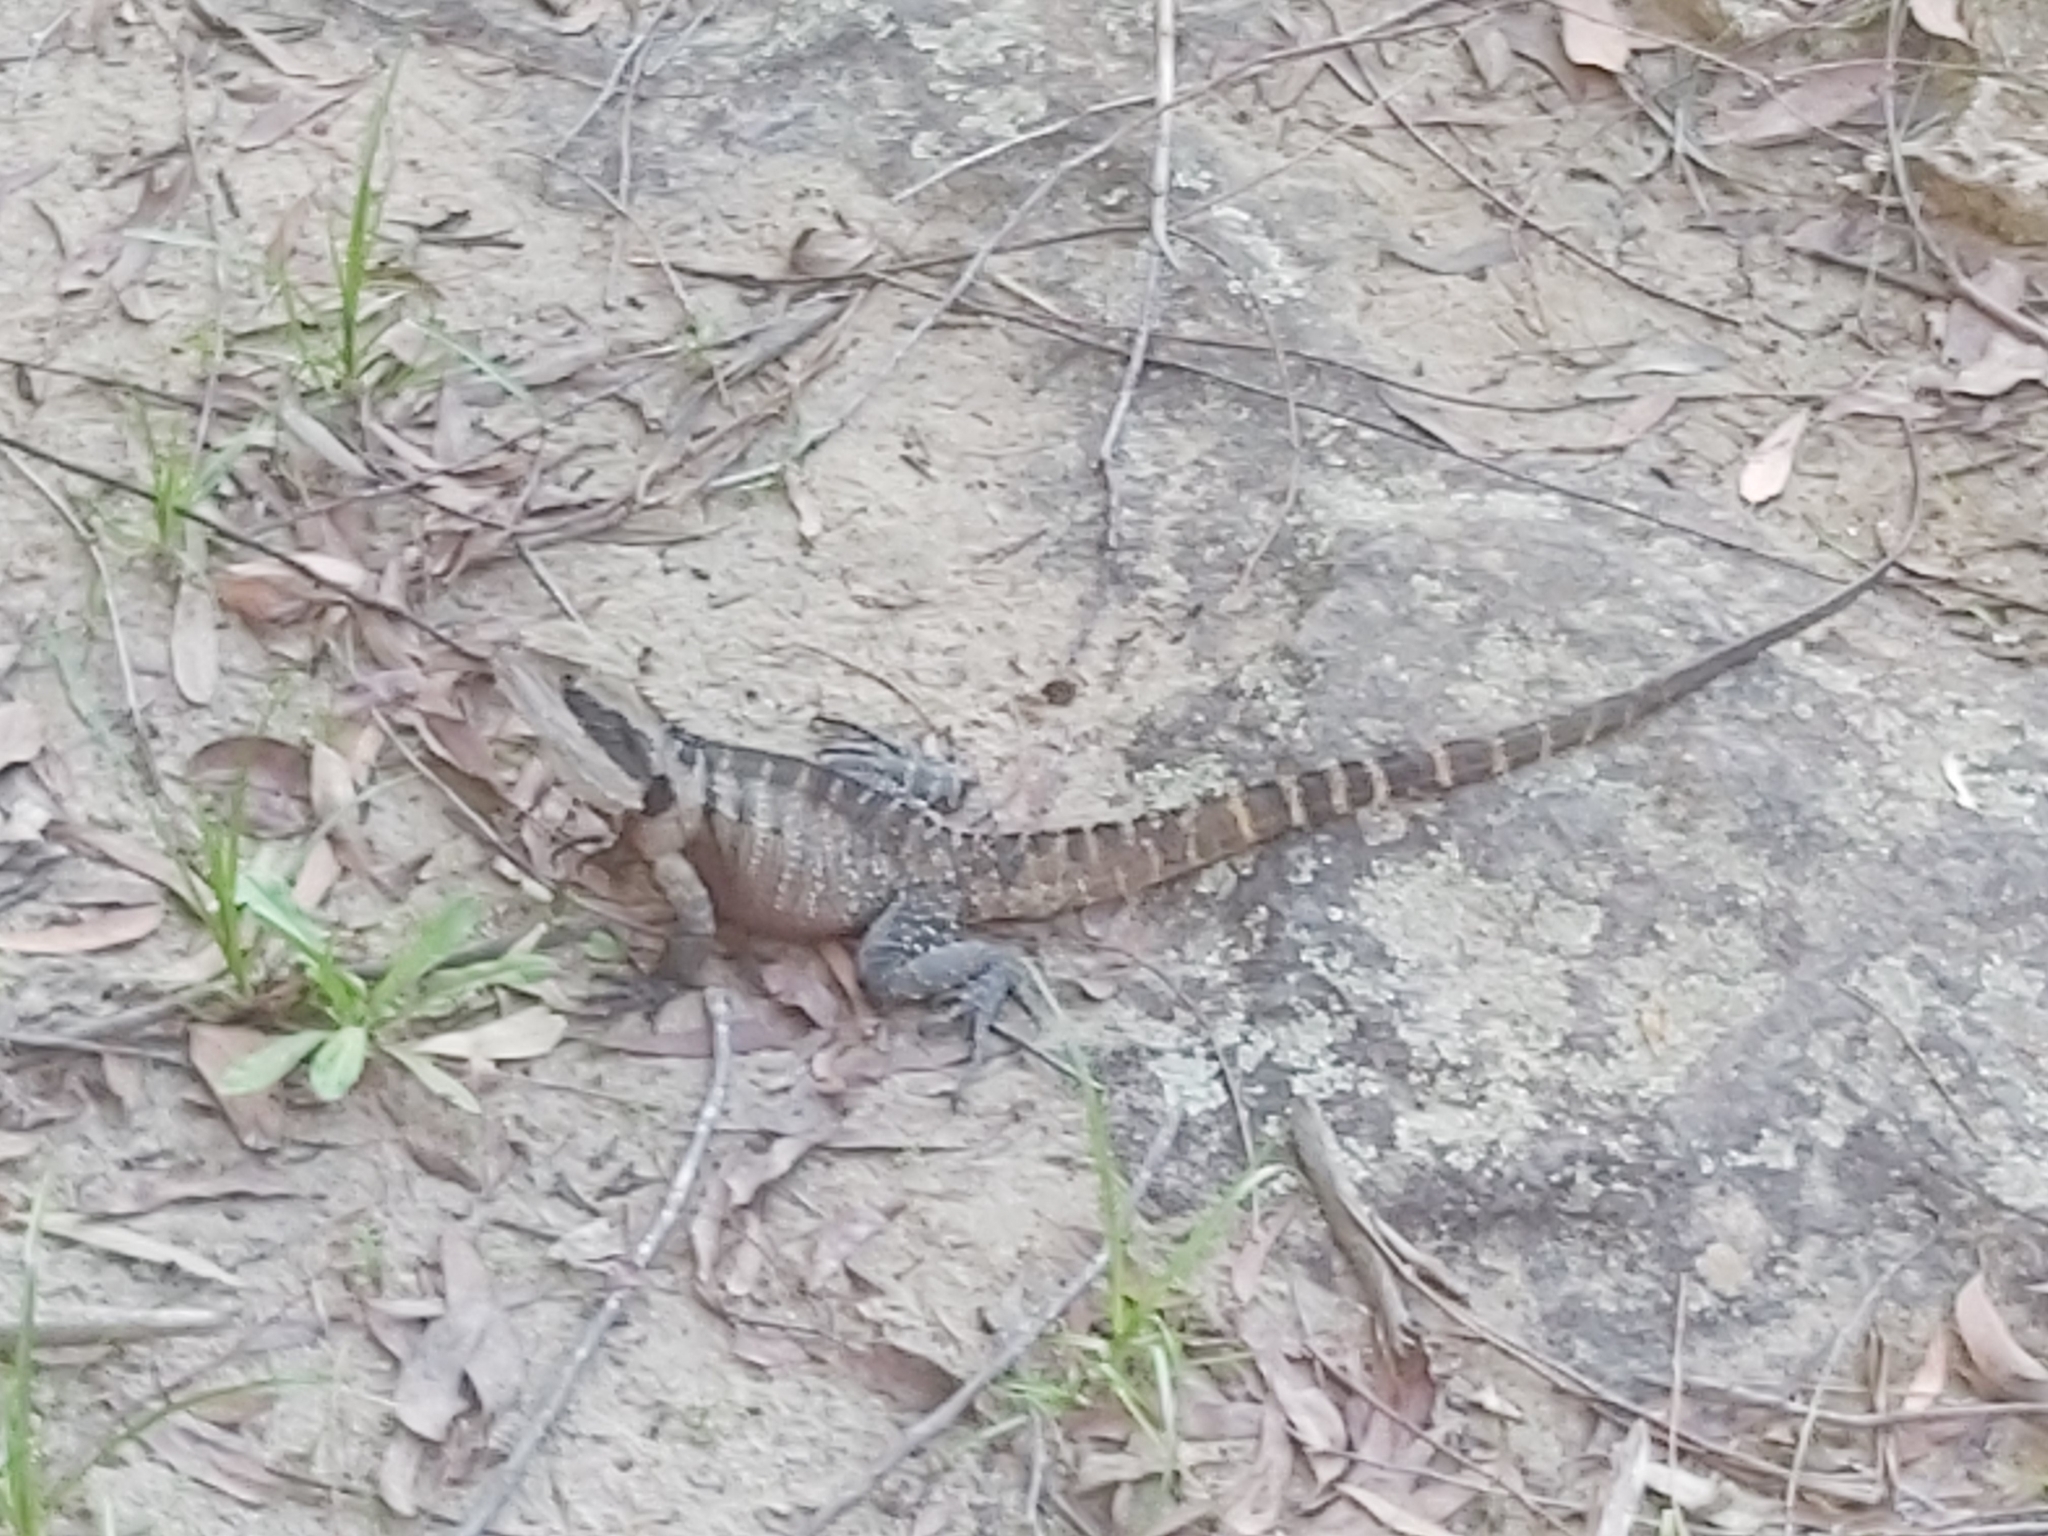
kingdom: Animalia
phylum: Chordata
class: Squamata
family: Agamidae
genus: Intellagama
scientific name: Intellagama lesueurii
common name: Eastern water dragon
